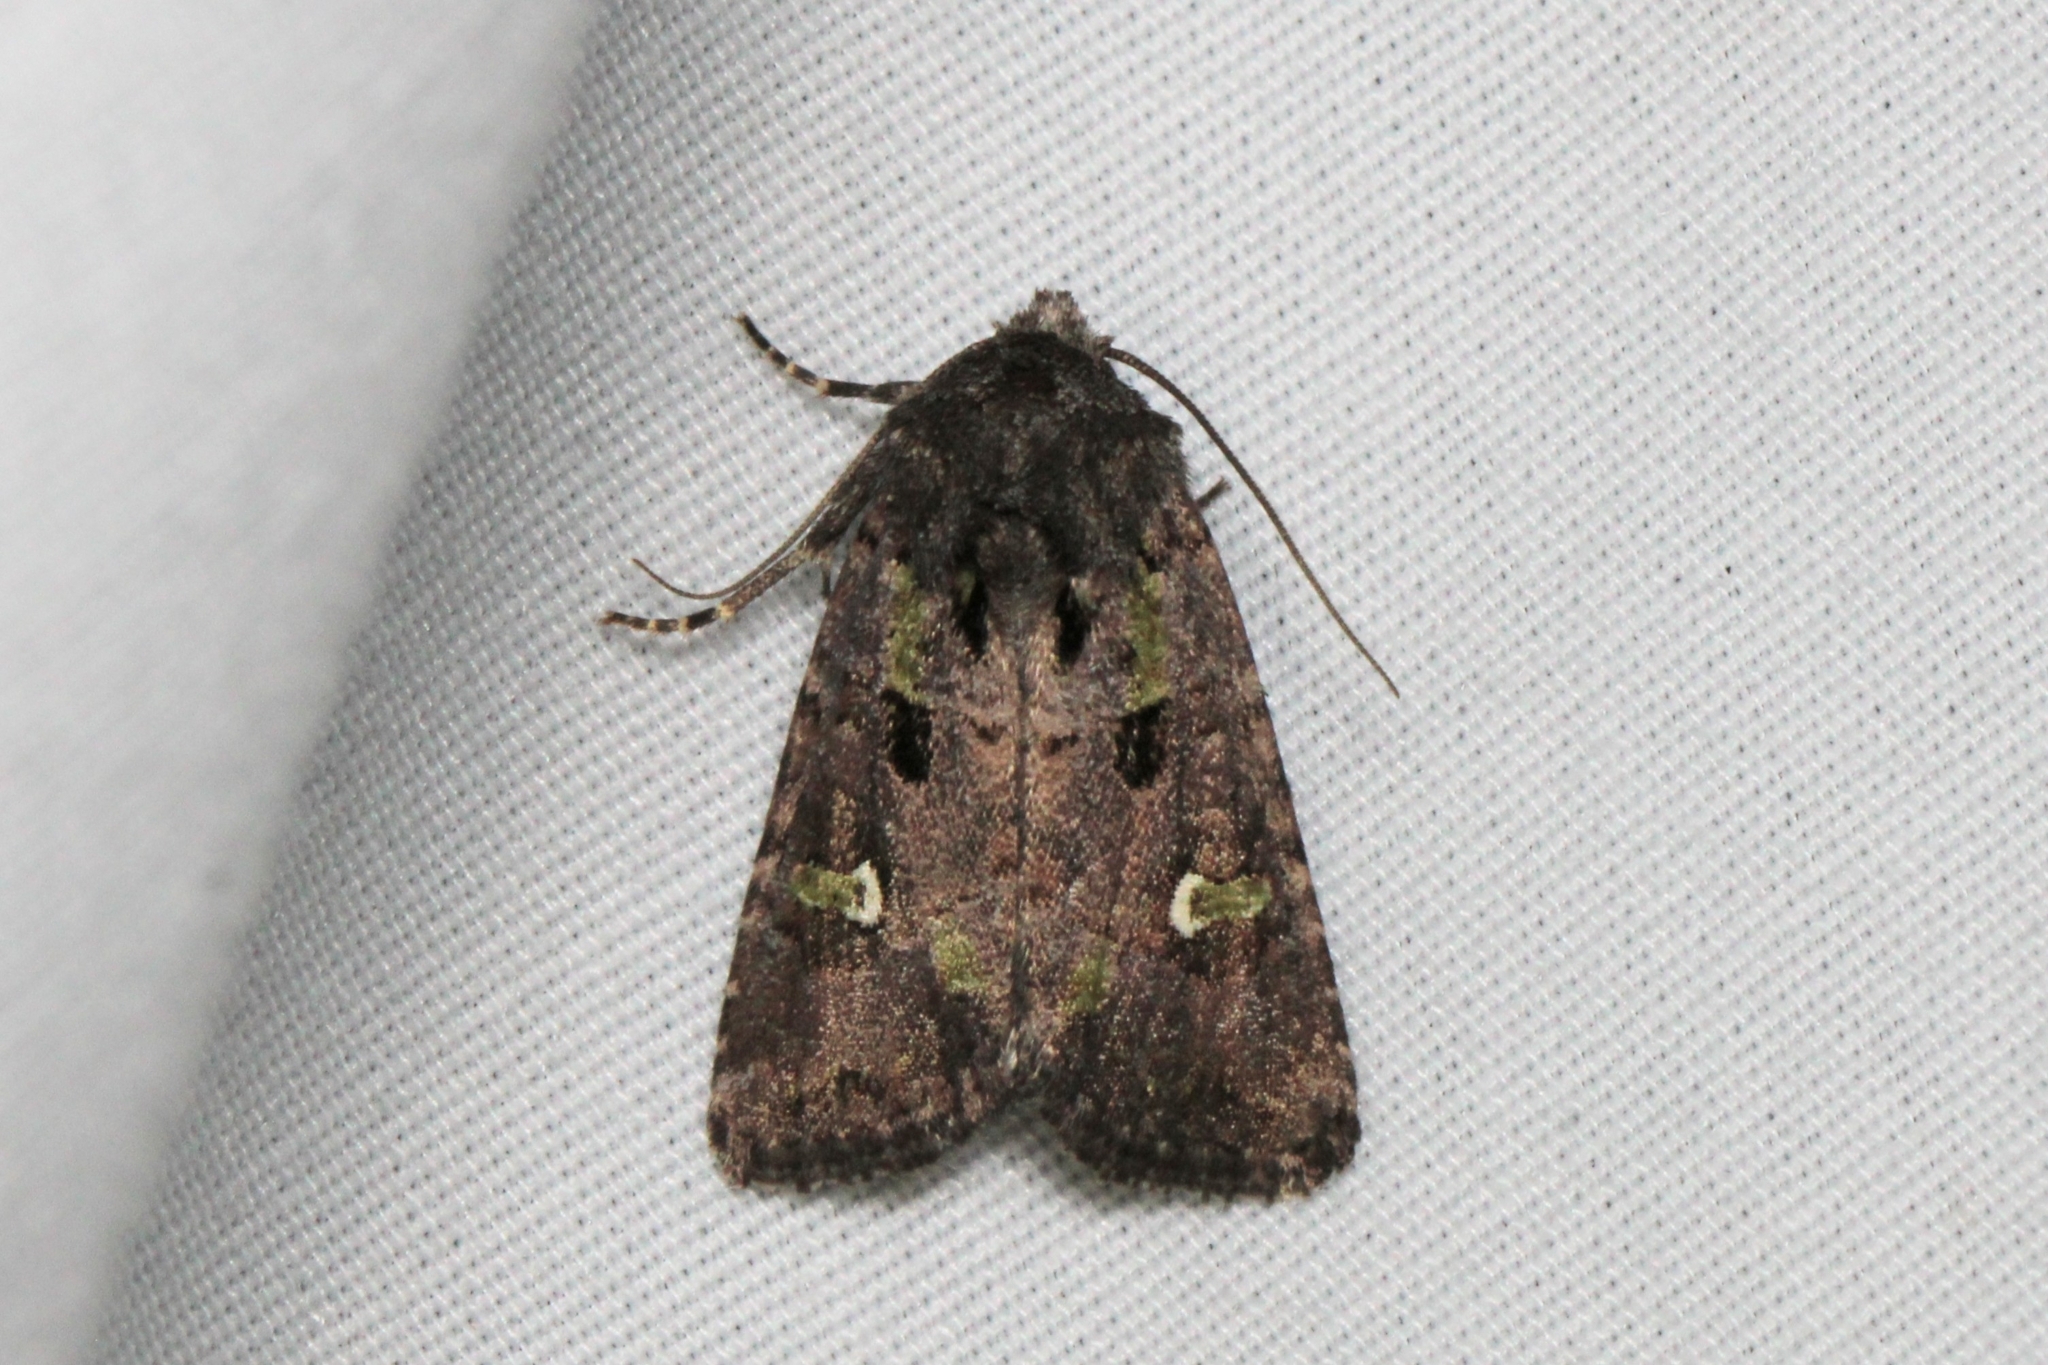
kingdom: Animalia
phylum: Arthropoda
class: Insecta
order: Lepidoptera
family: Noctuidae
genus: Lacinipolia
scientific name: Lacinipolia renigera
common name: Kidney-spotted minor
